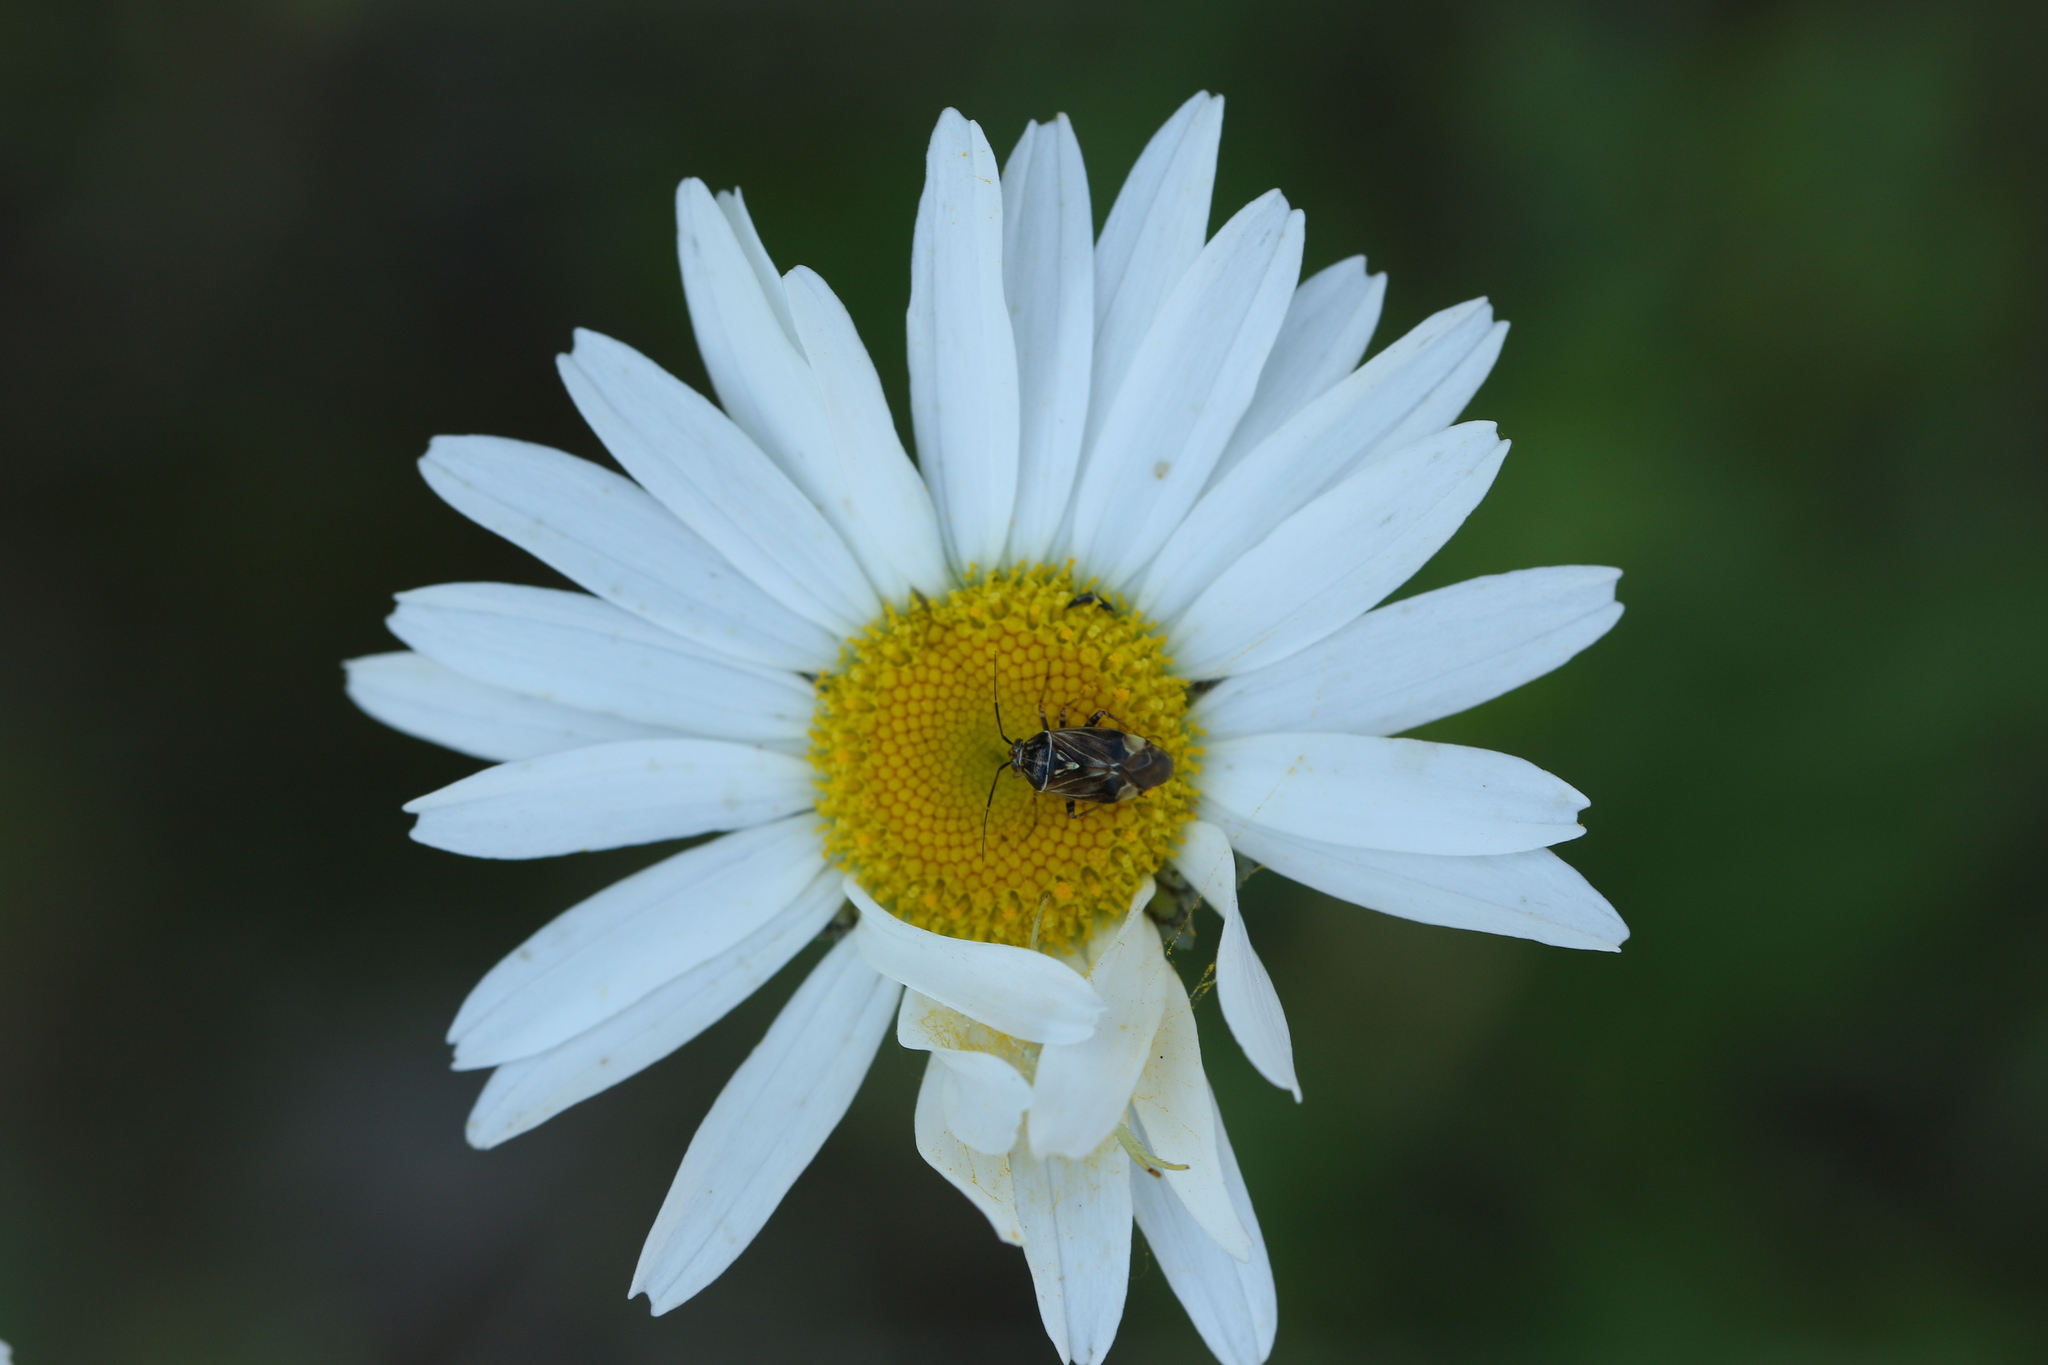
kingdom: Animalia
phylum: Arthropoda
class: Insecta
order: Hemiptera
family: Miridae
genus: Lygus
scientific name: Lygus lineolaris
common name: North american tarnished plant bug
